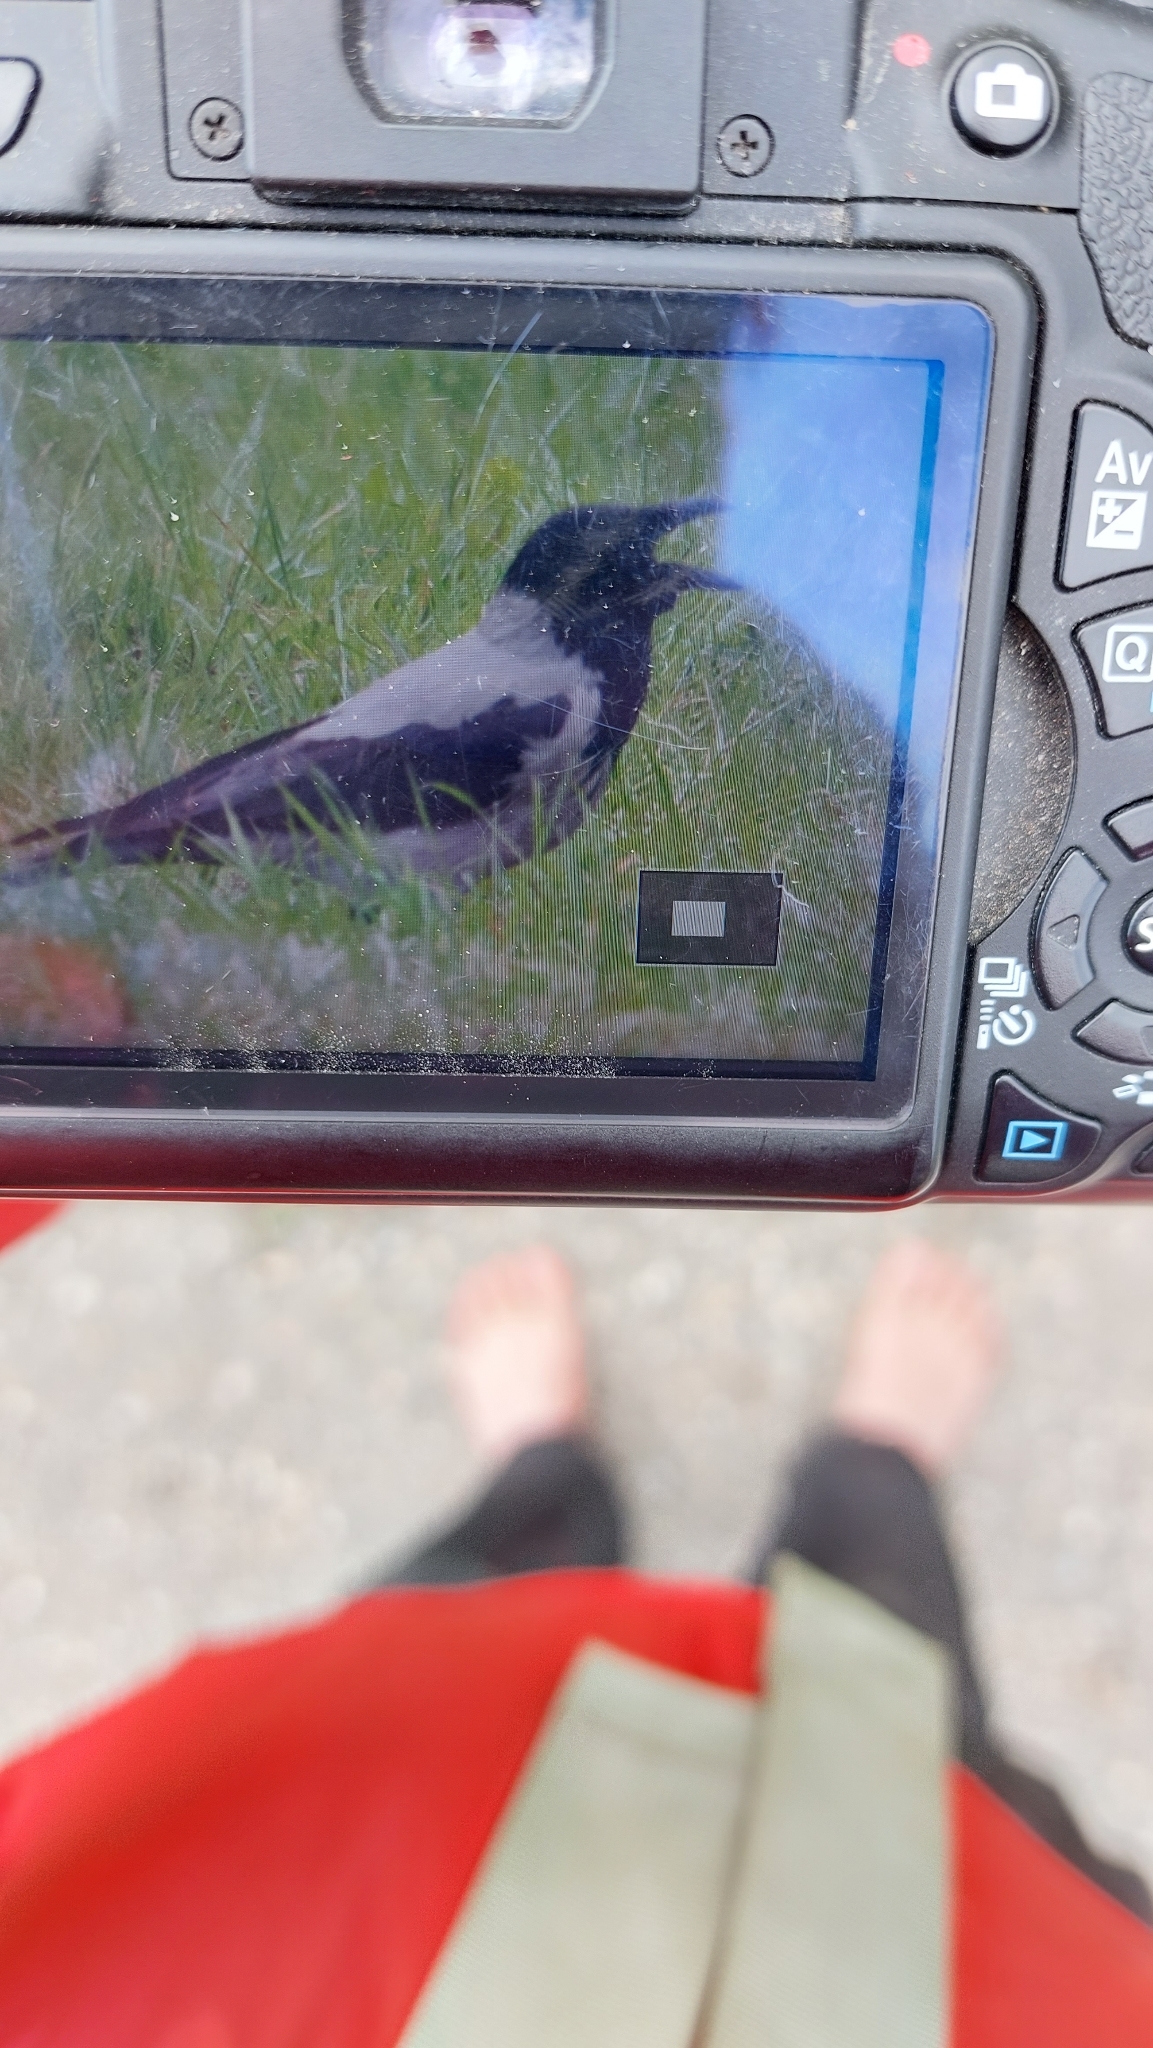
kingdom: Animalia
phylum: Chordata
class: Aves
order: Passeriformes
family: Corvidae
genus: Corvus
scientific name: Corvus cornix
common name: Hooded crow
